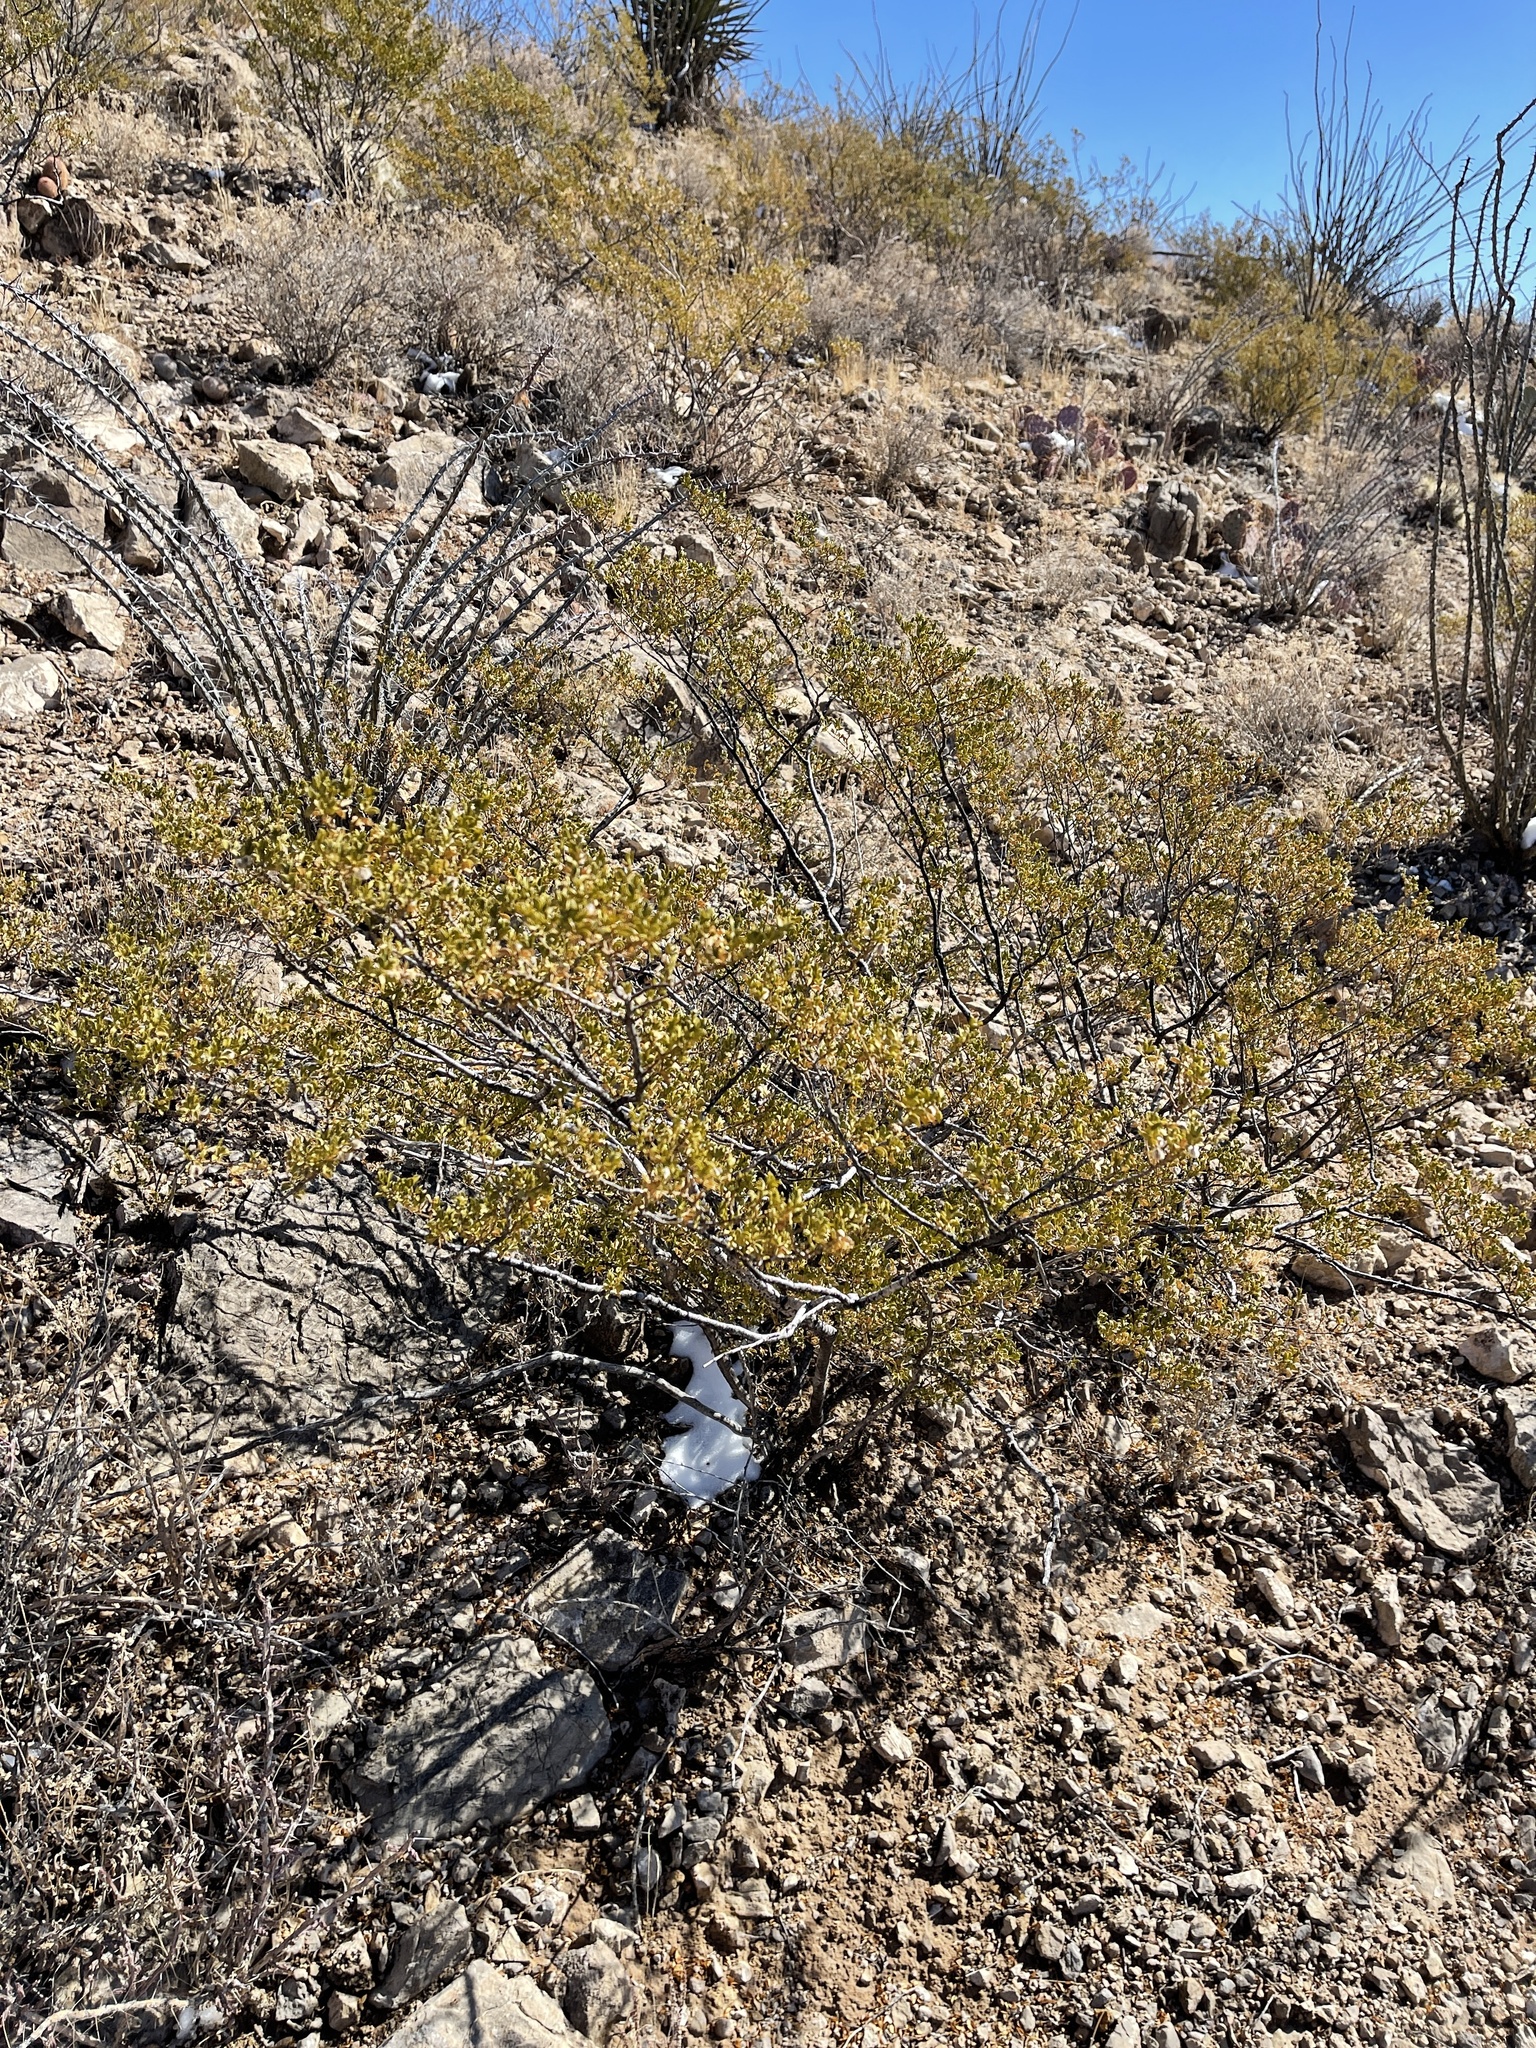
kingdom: Plantae
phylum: Tracheophyta
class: Magnoliopsida
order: Zygophyllales
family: Zygophyllaceae
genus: Larrea
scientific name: Larrea tridentata
